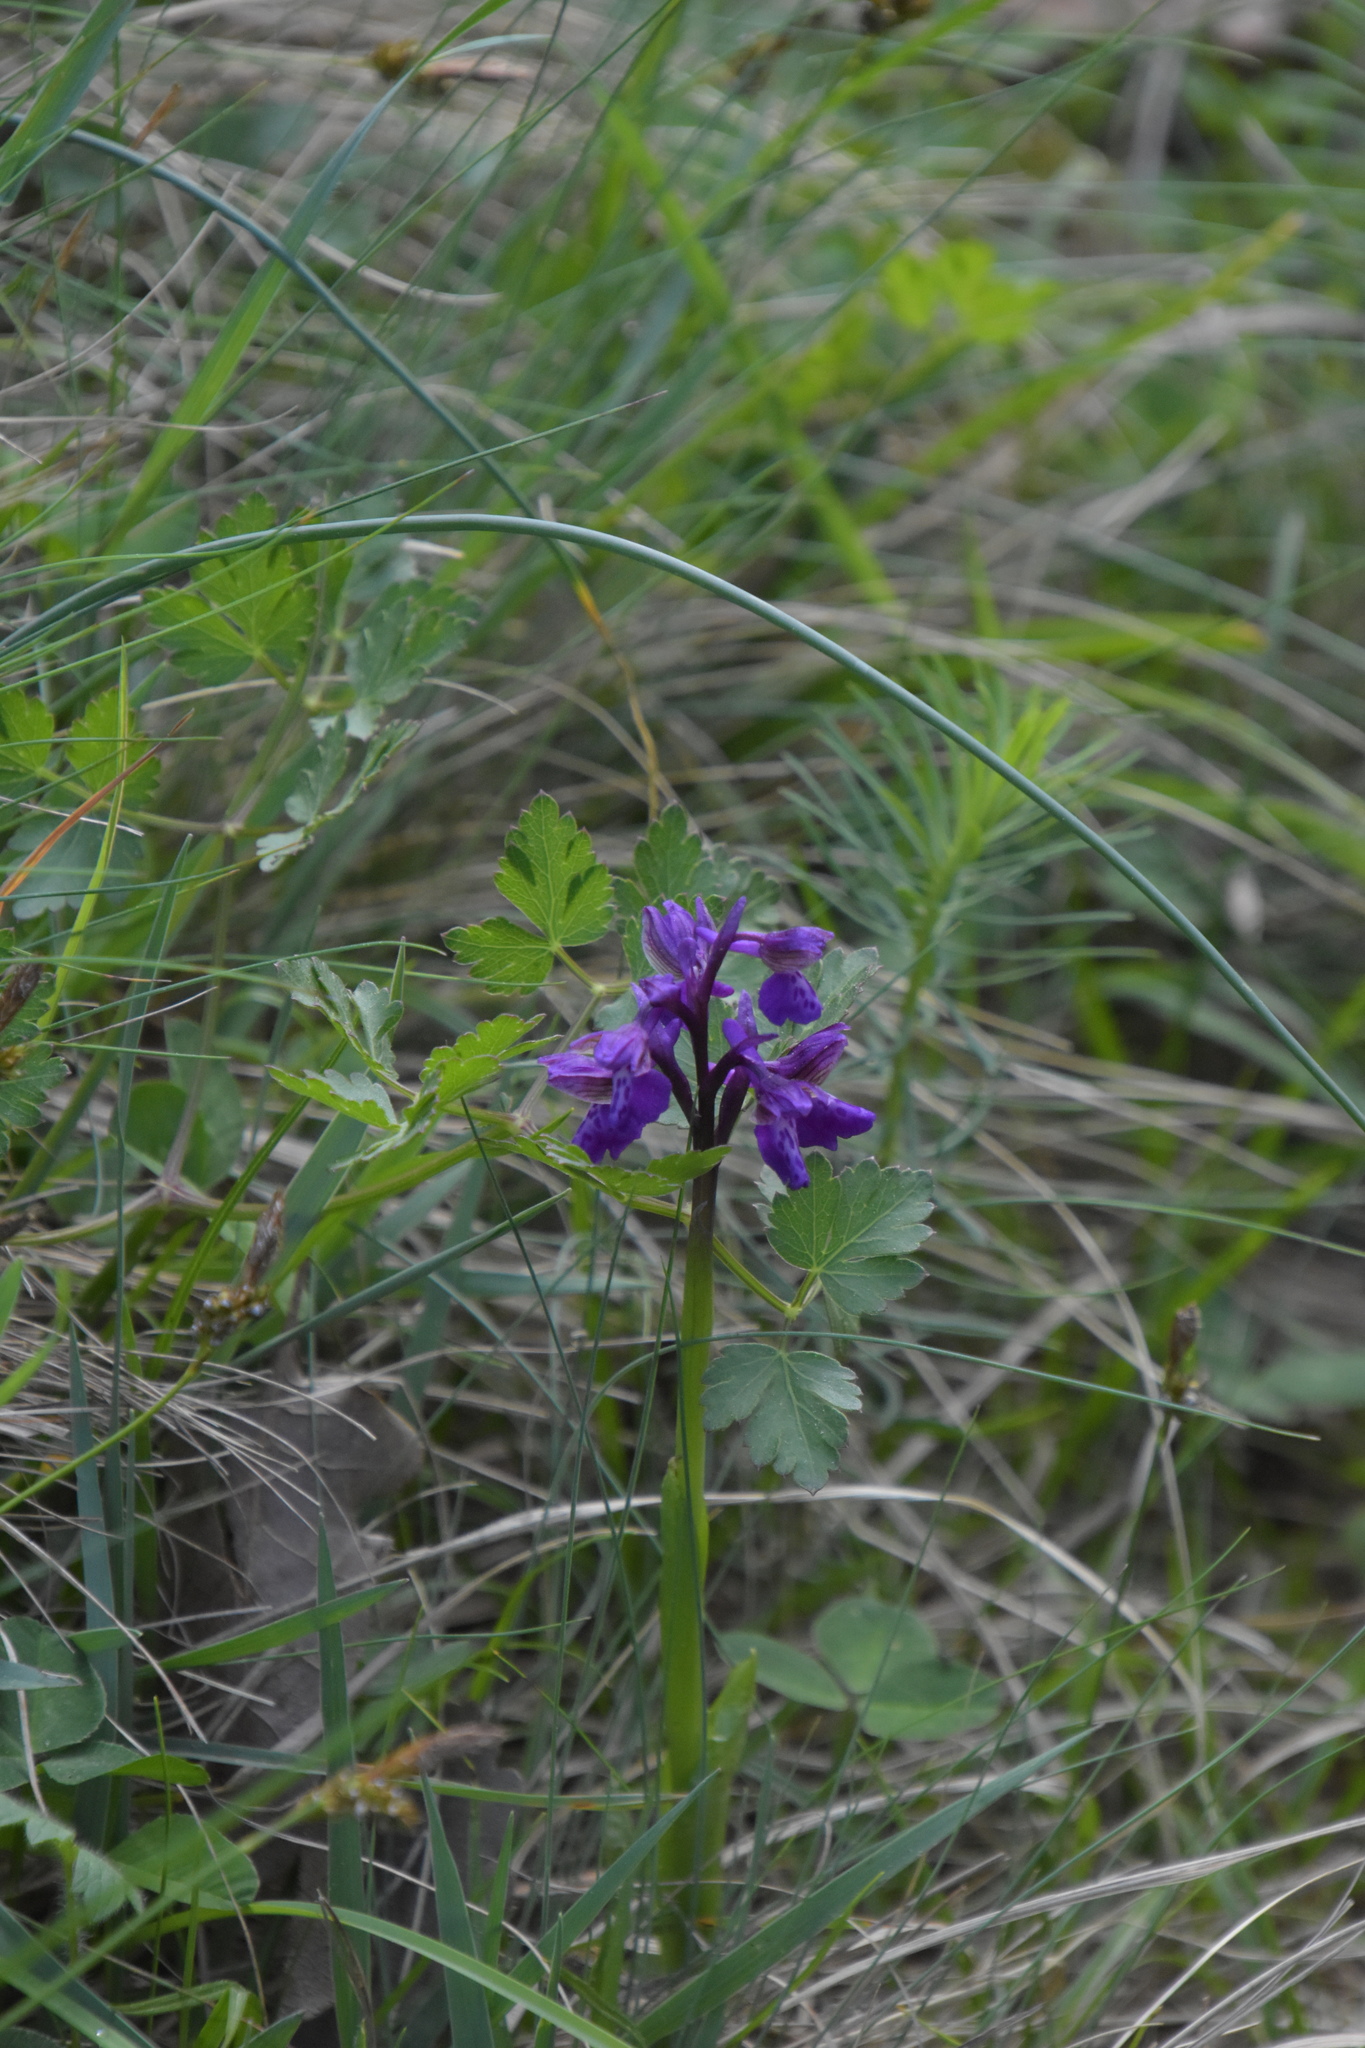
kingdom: Plantae
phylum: Tracheophyta
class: Liliopsida
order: Asparagales
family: Orchidaceae
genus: Anacamptis
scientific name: Anacamptis morio
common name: Green-winged orchid
